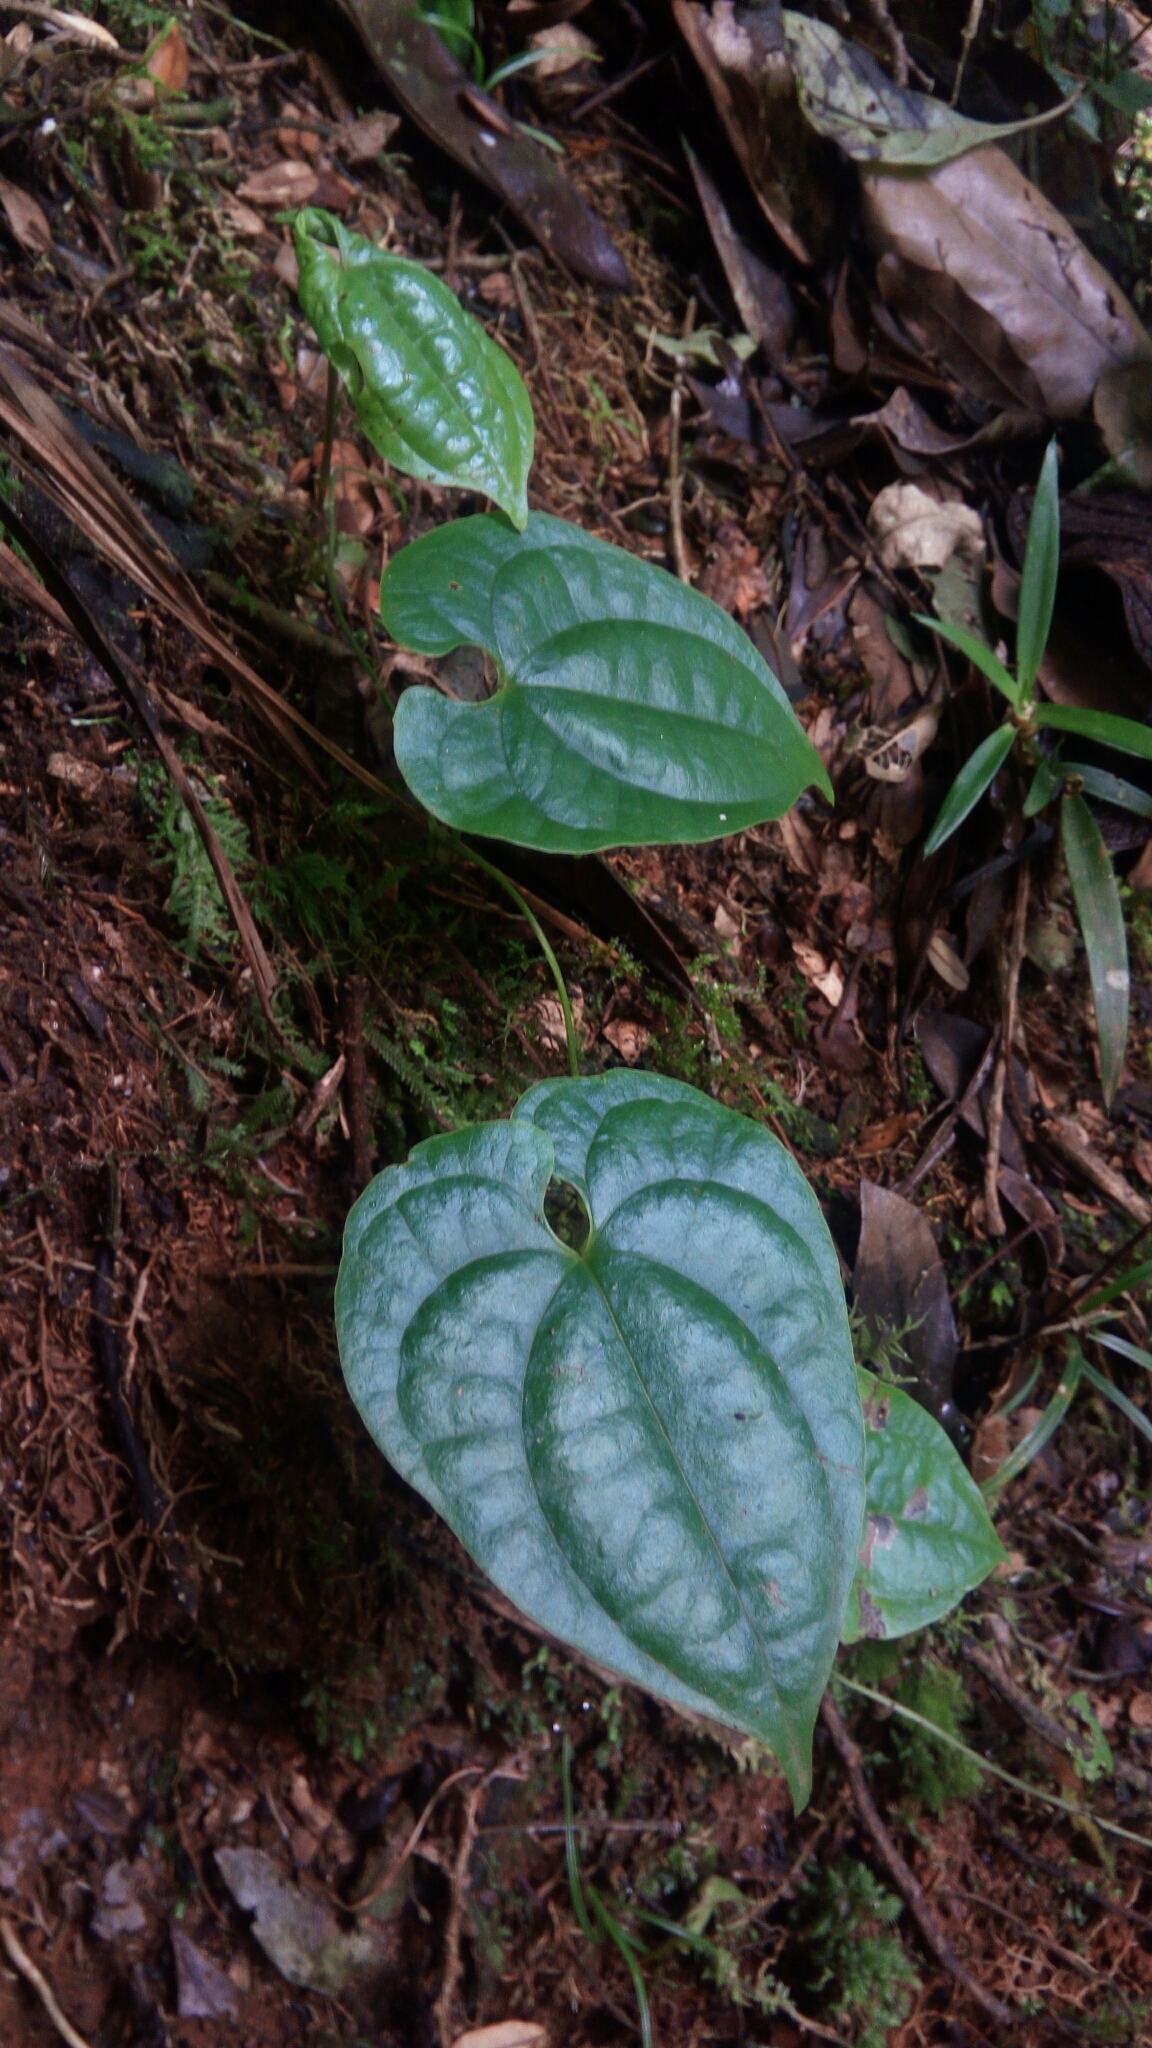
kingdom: Plantae
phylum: Tracheophyta
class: Liliopsida
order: Dioscoreales
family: Dioscoreaceae
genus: Dioscorea
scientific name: Dioscorea seriflora
